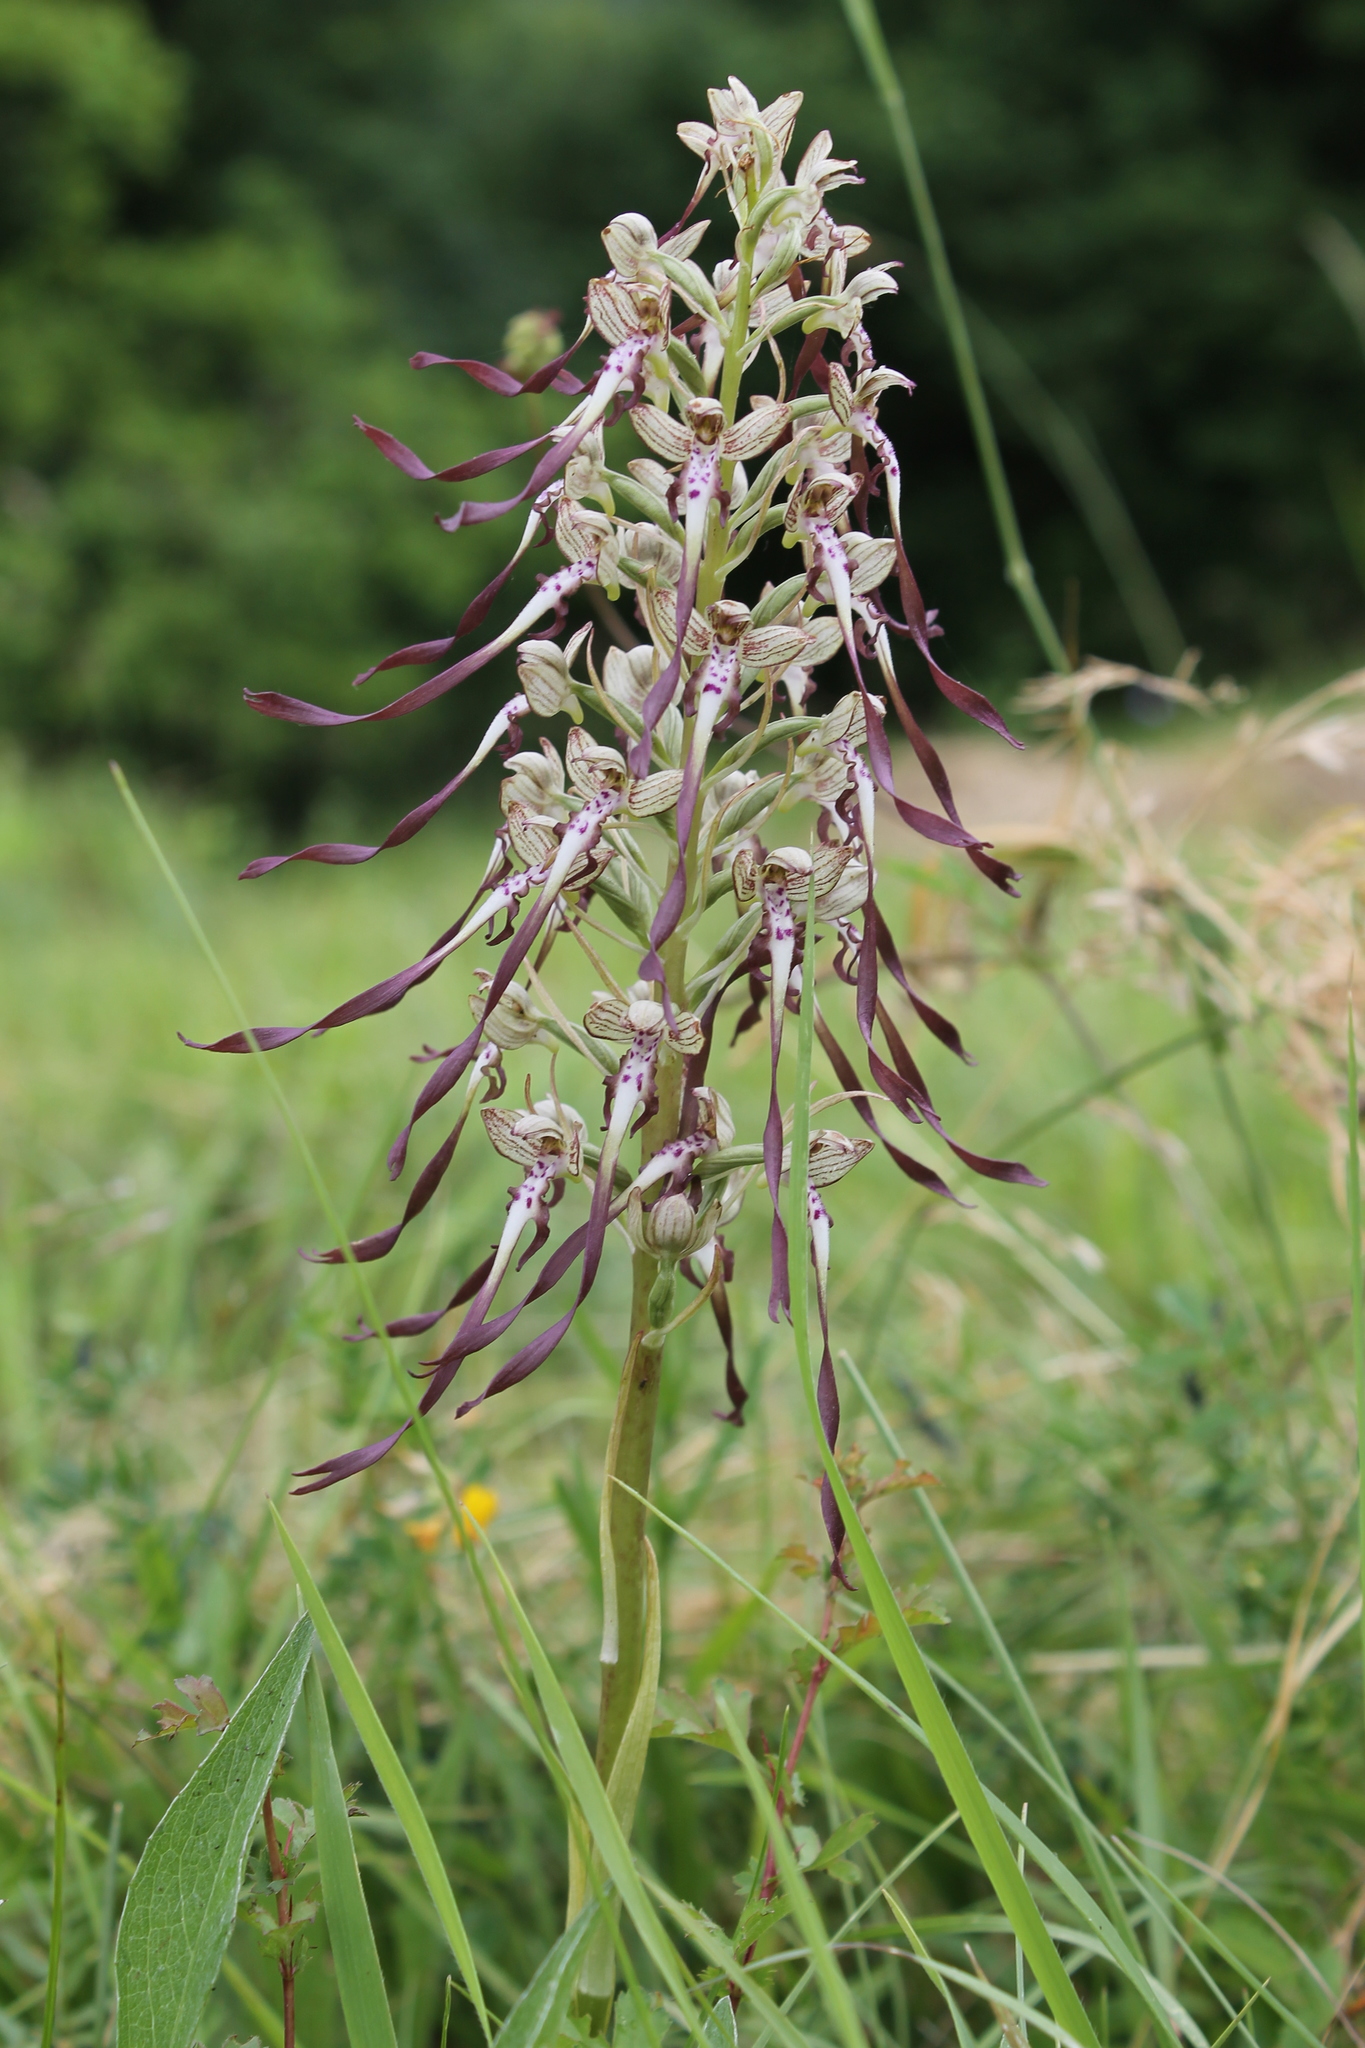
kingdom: Plantae
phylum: Tracheophyta
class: Liliopsida
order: Asparagales
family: Orchidaceae
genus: Himantoglossum
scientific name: Himantoglossum hircinum
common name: Lizard orchid
